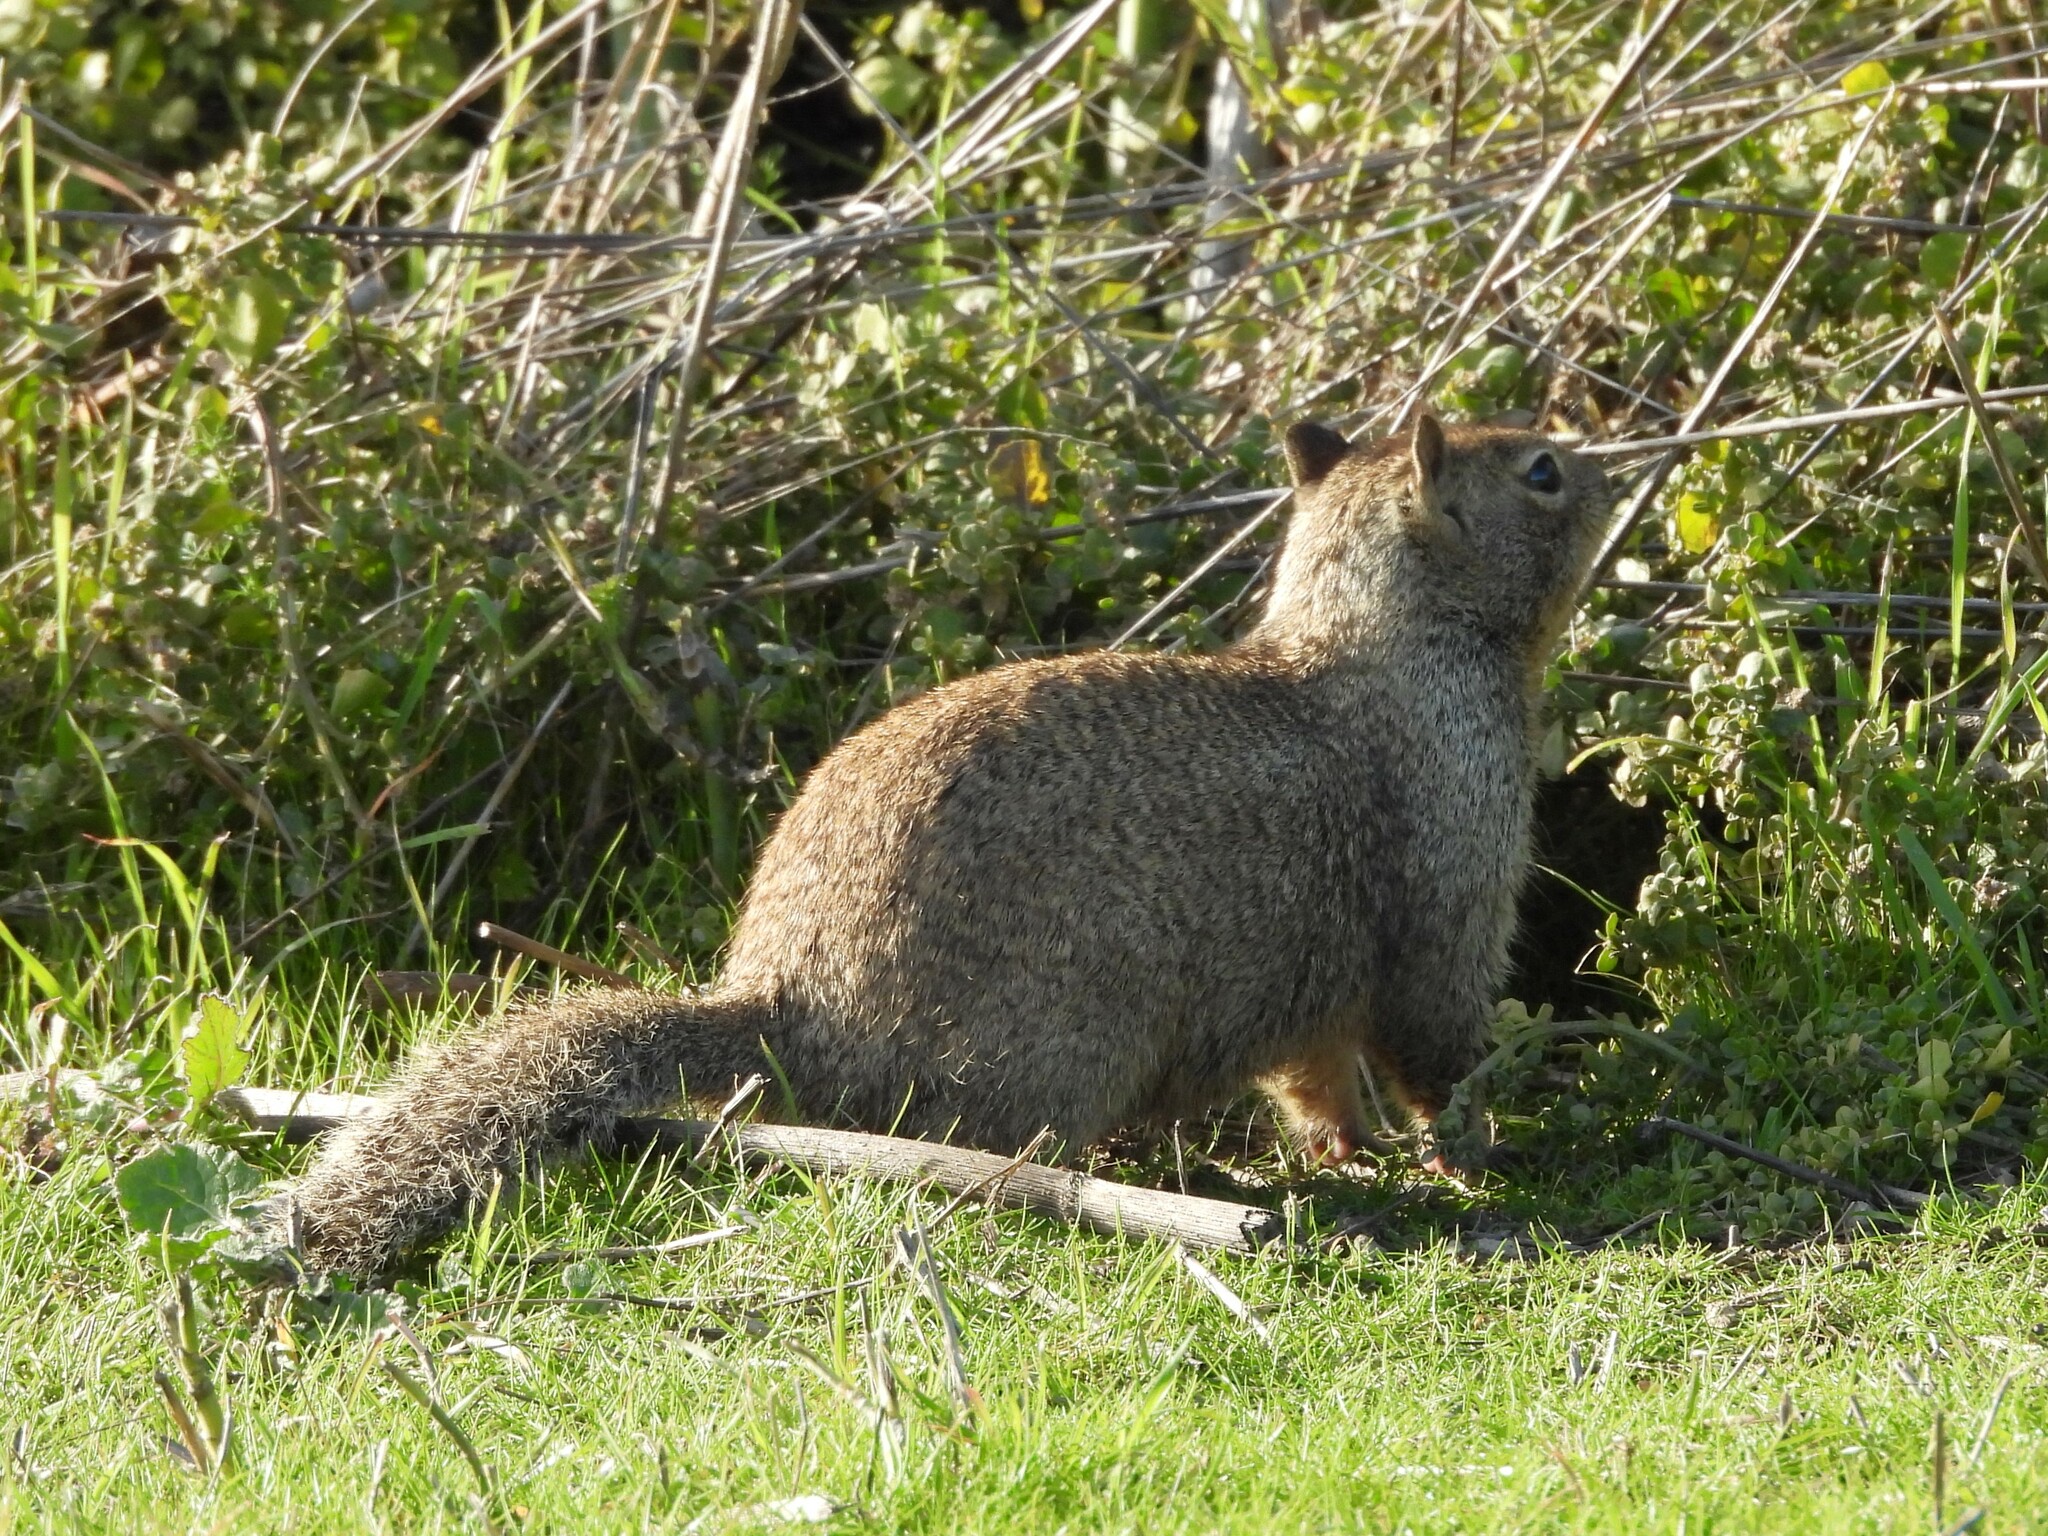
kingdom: Animalia
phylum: Chordata
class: Mammalia
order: Rodentia
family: Sciuridae
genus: Otospermophilus
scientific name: Otospermophilus beecheyi
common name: California ground squirrel
